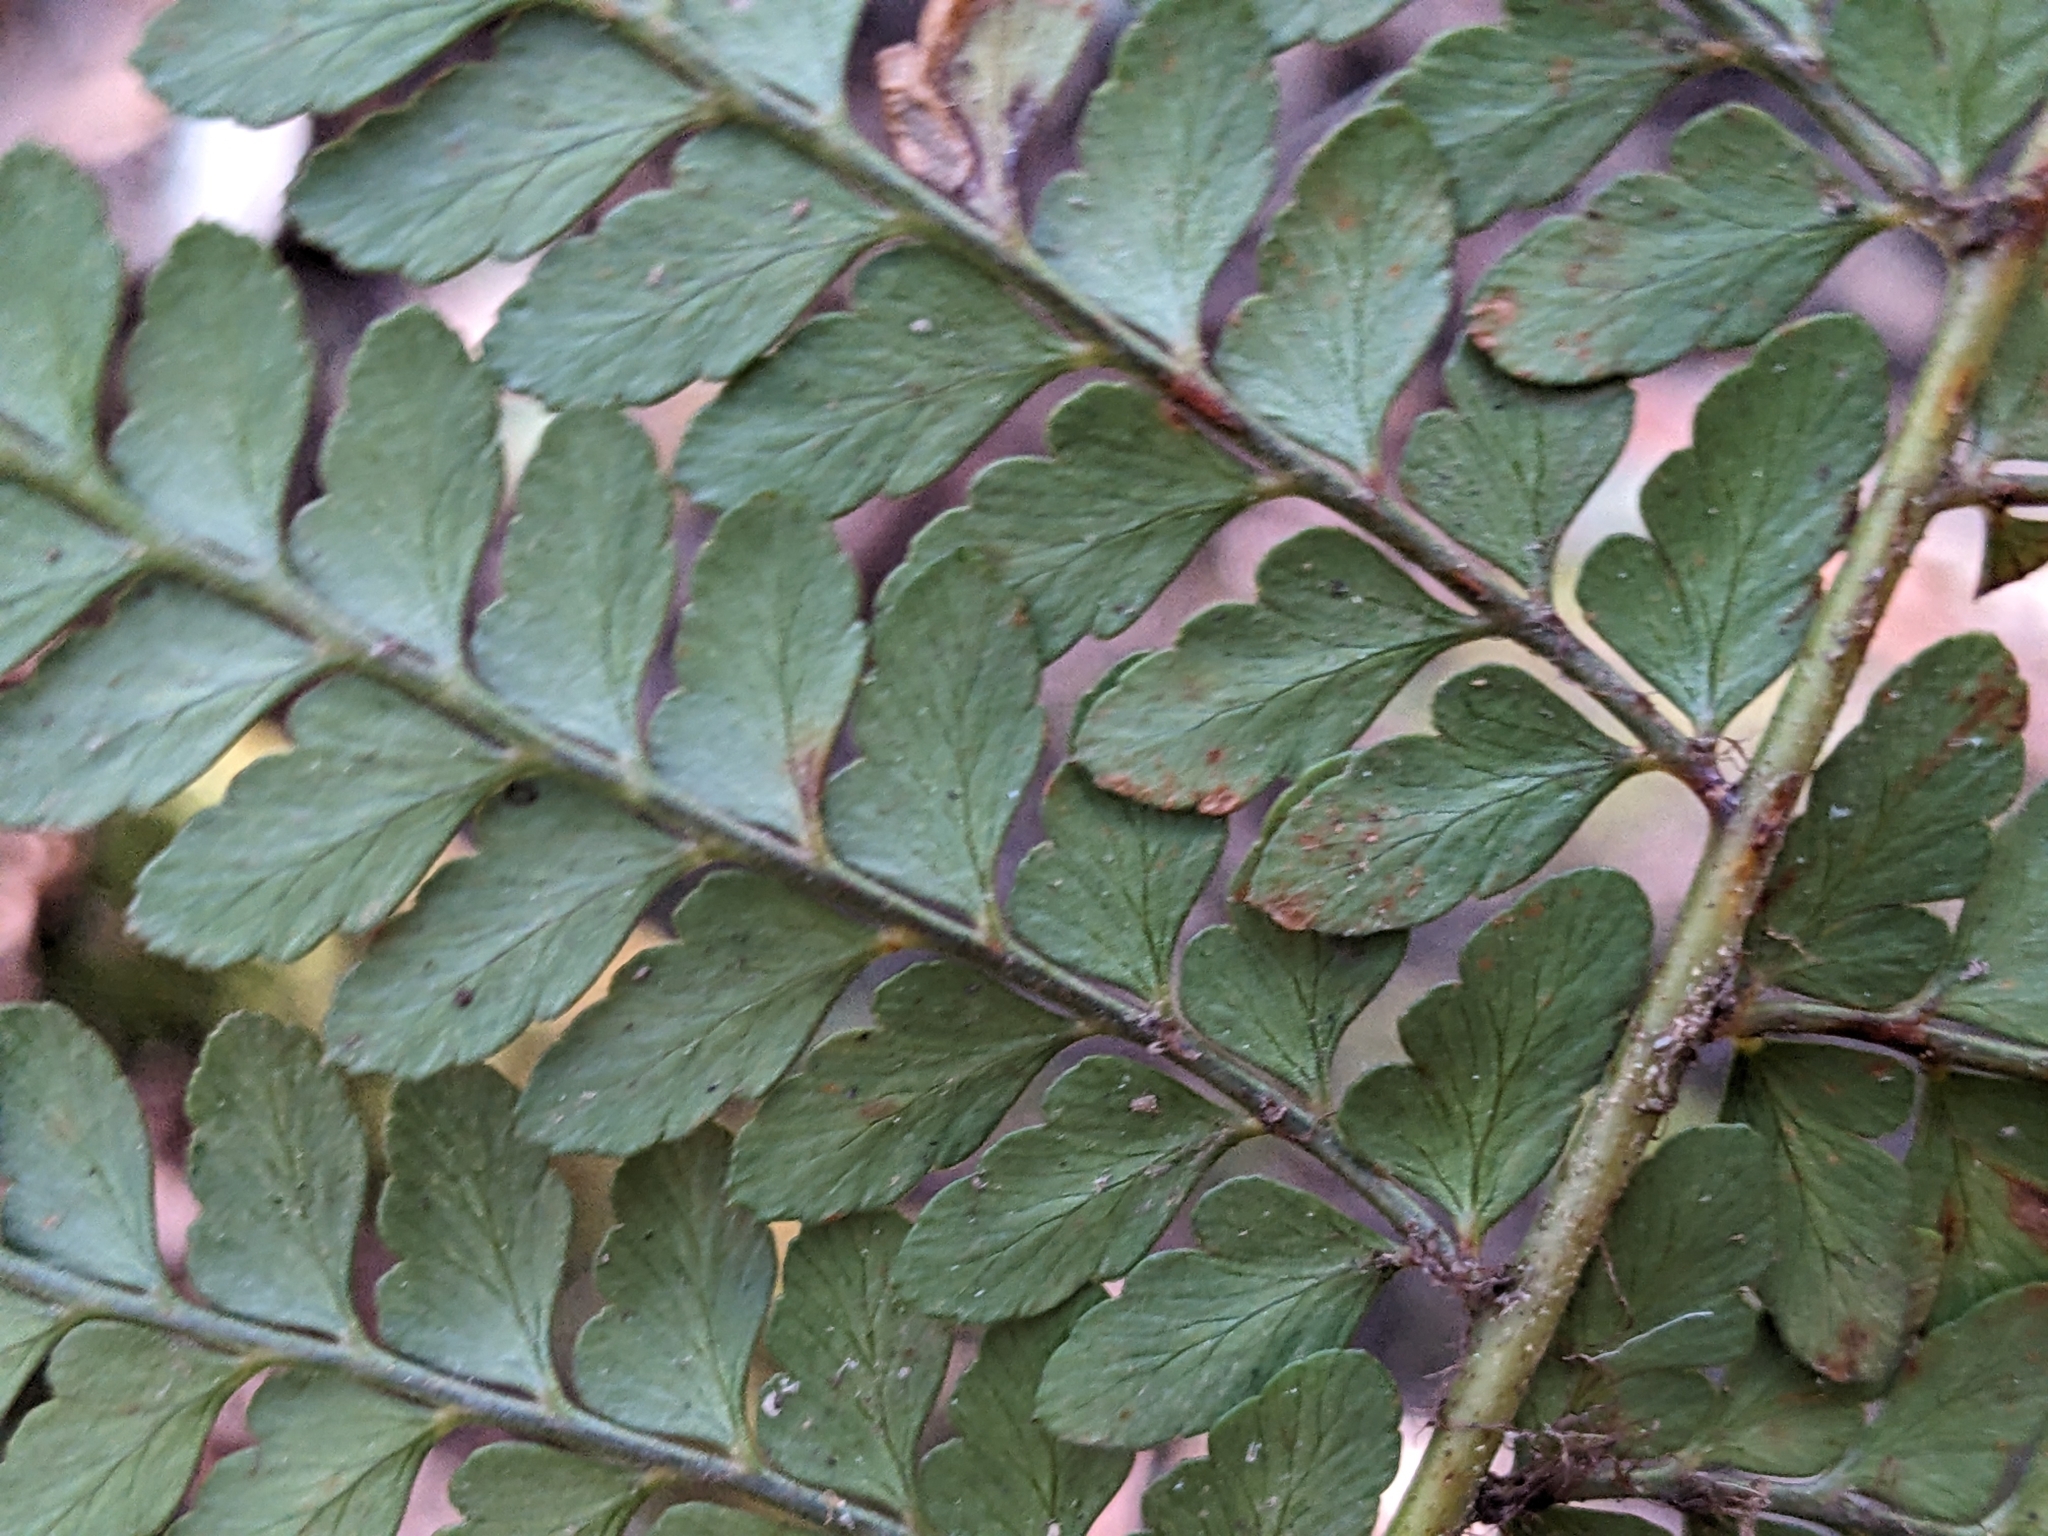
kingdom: Plantae
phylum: Tracheophyta
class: Polypodiopsida
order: Polypodiales
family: Dryopteridaceae
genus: Polystichum
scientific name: Polystichum proliferum
